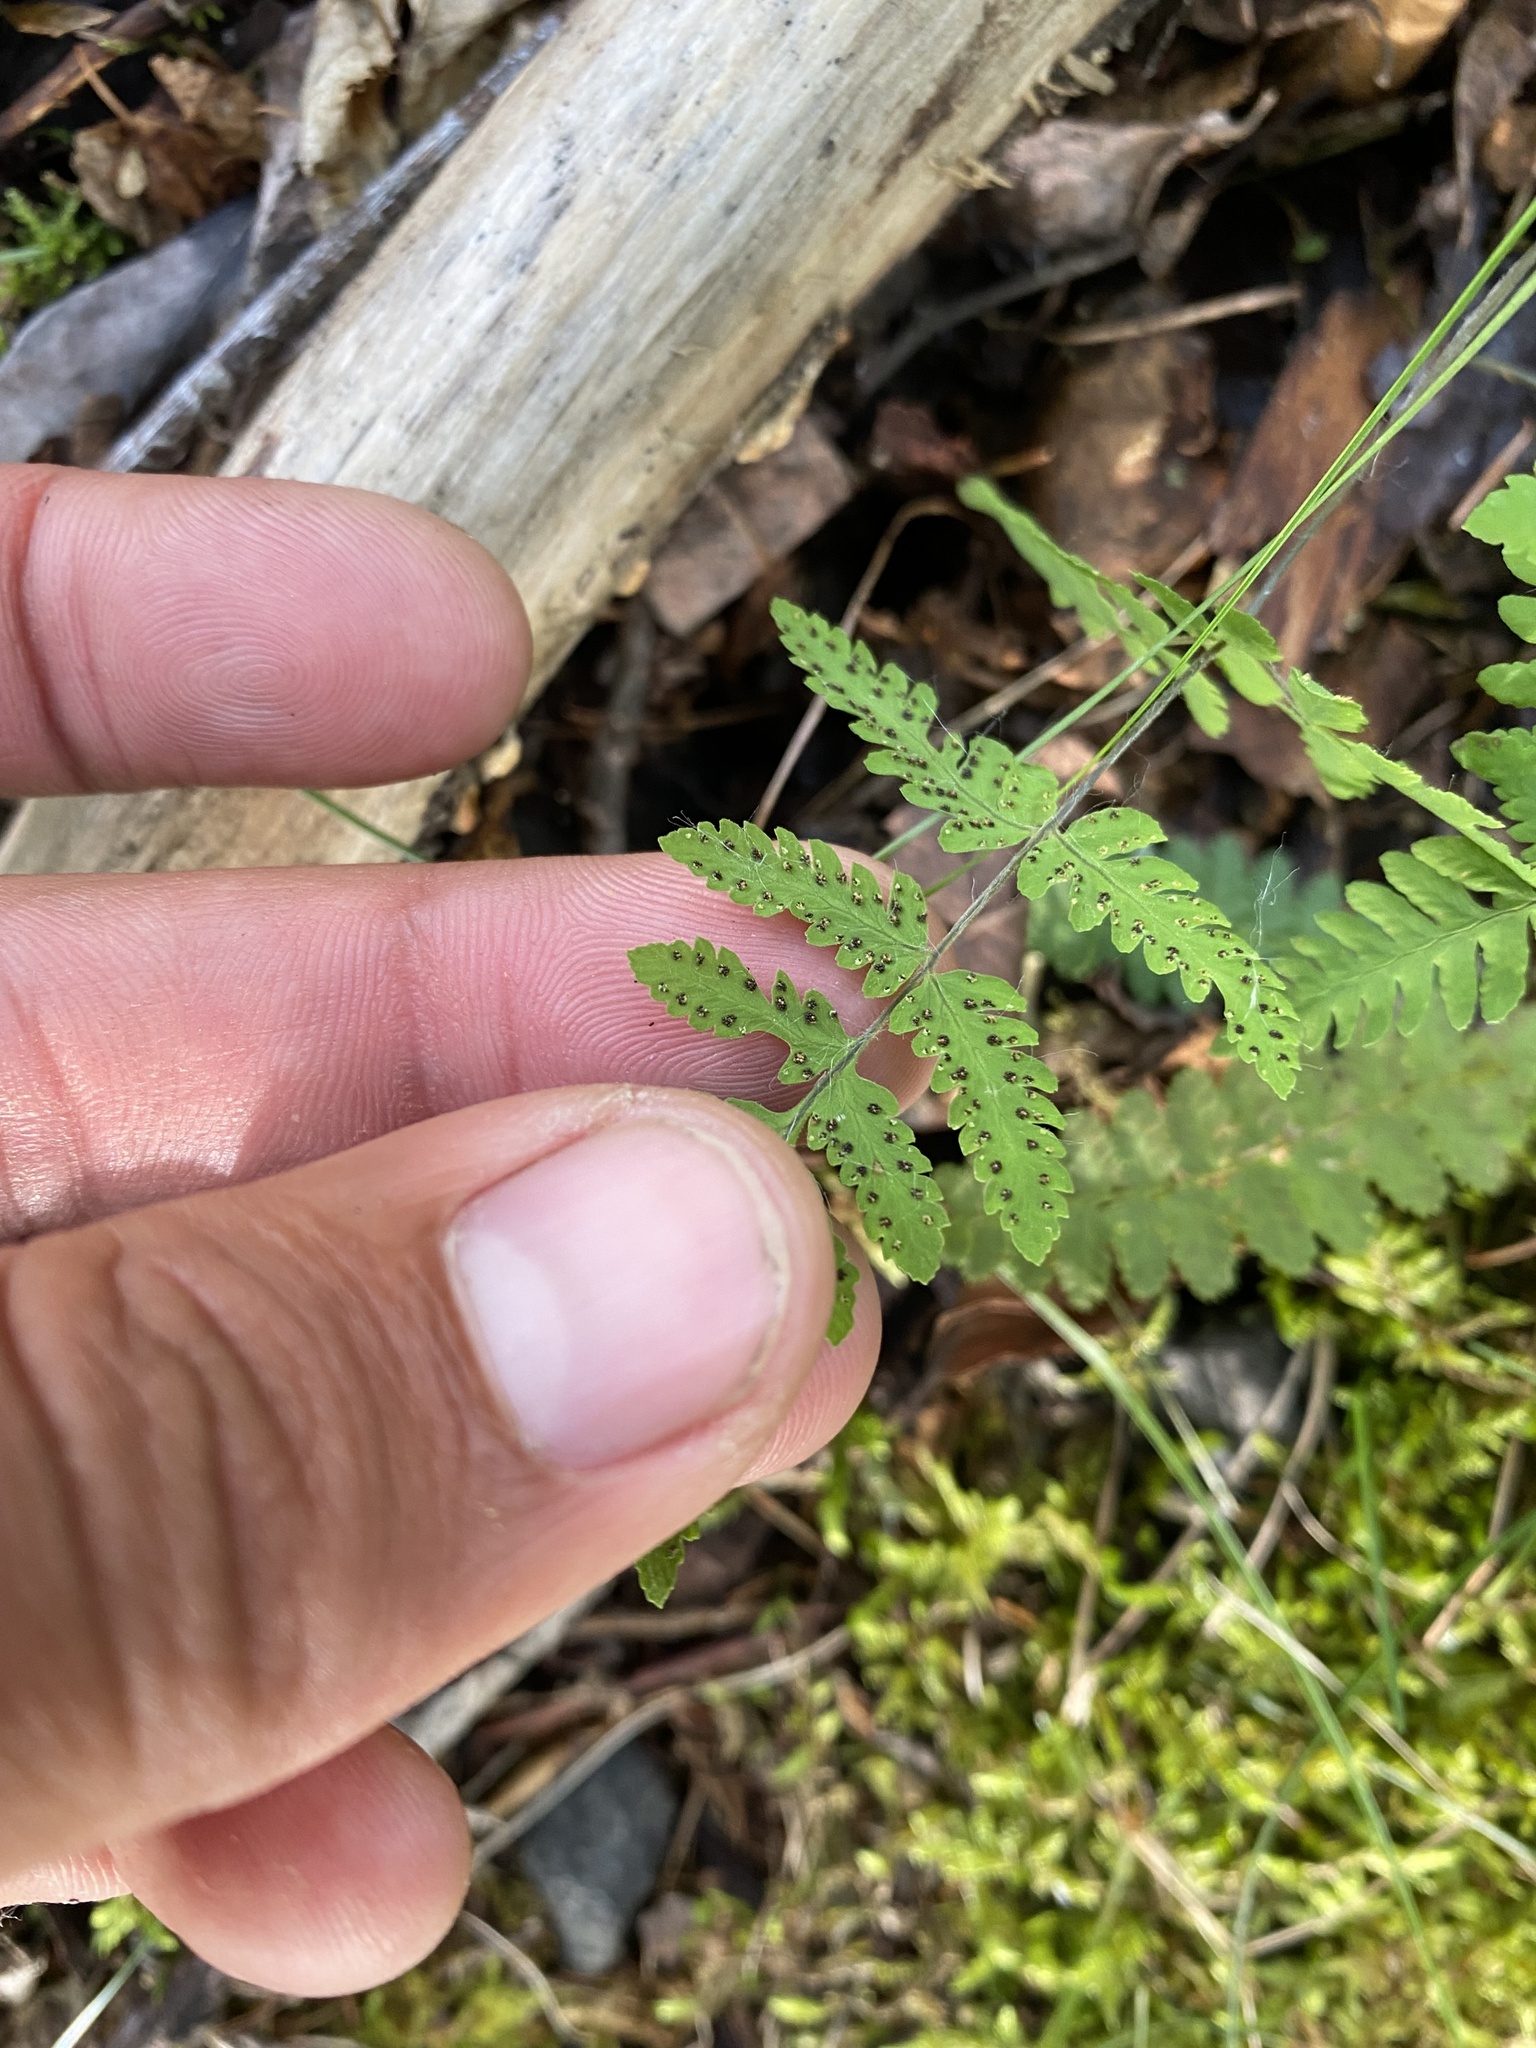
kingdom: Plantae
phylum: Tracheophyta
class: Polypodiopsida
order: Polypodiales
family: Cystopteridaceae
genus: Gymnocarpium
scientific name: Gymnocarpium jessoense
